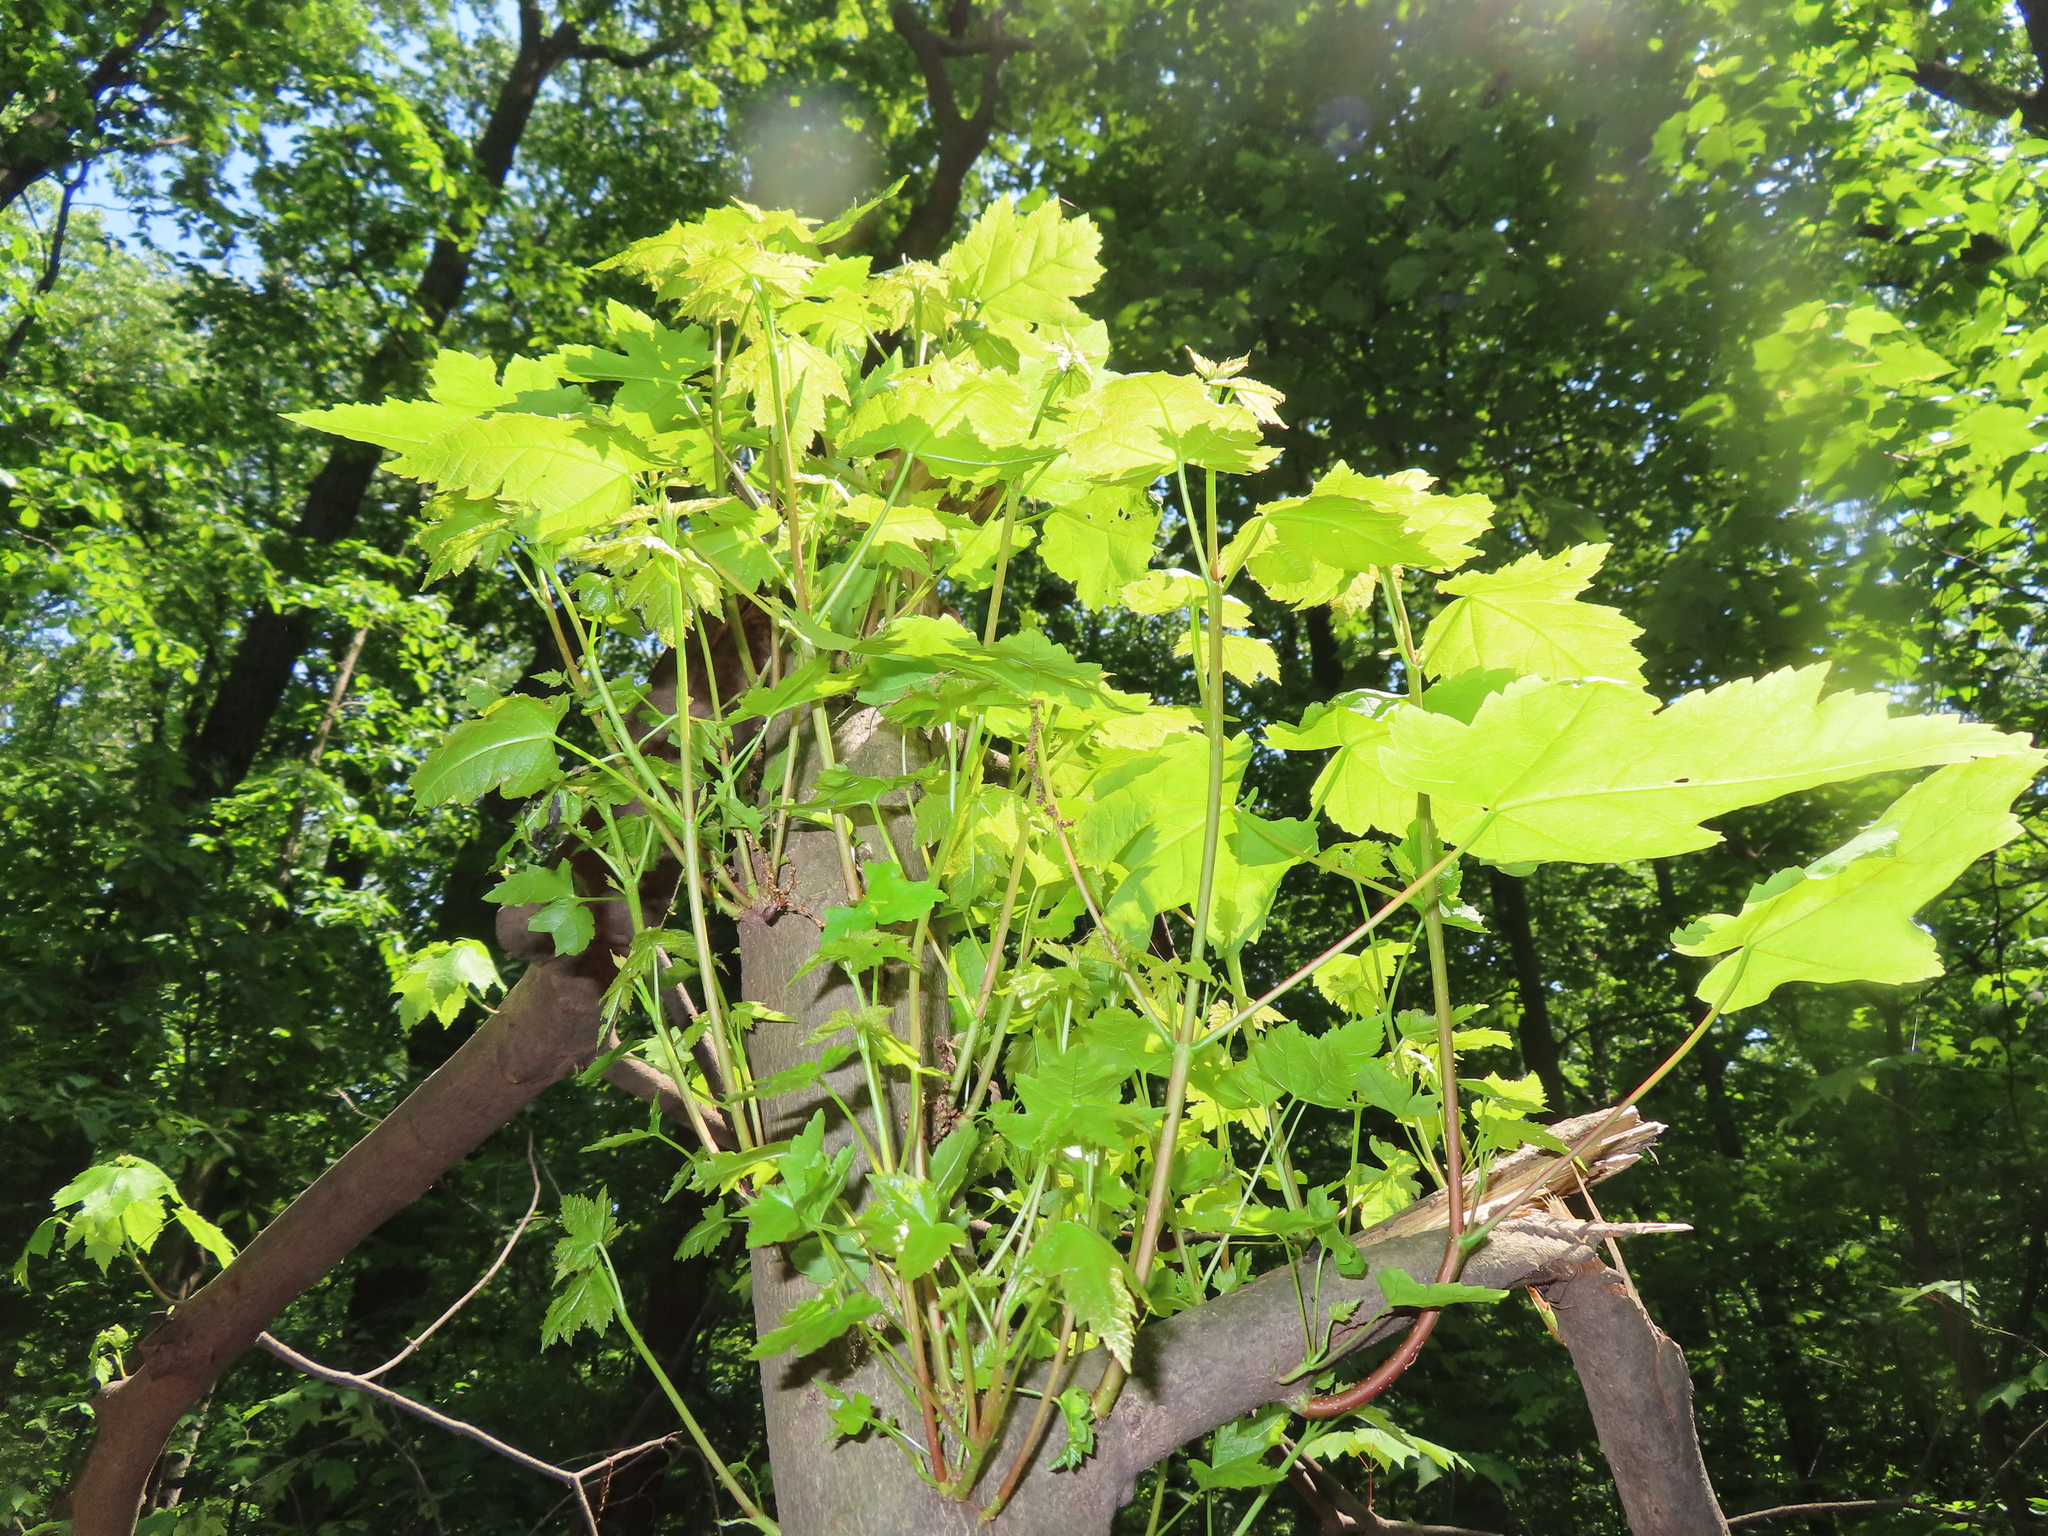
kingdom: Plantae
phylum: Tracheophyta
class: Magnoliopsida
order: Sapindales
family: Sapindaceae
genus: Acer
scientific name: Acer rubrum
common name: Red maple
